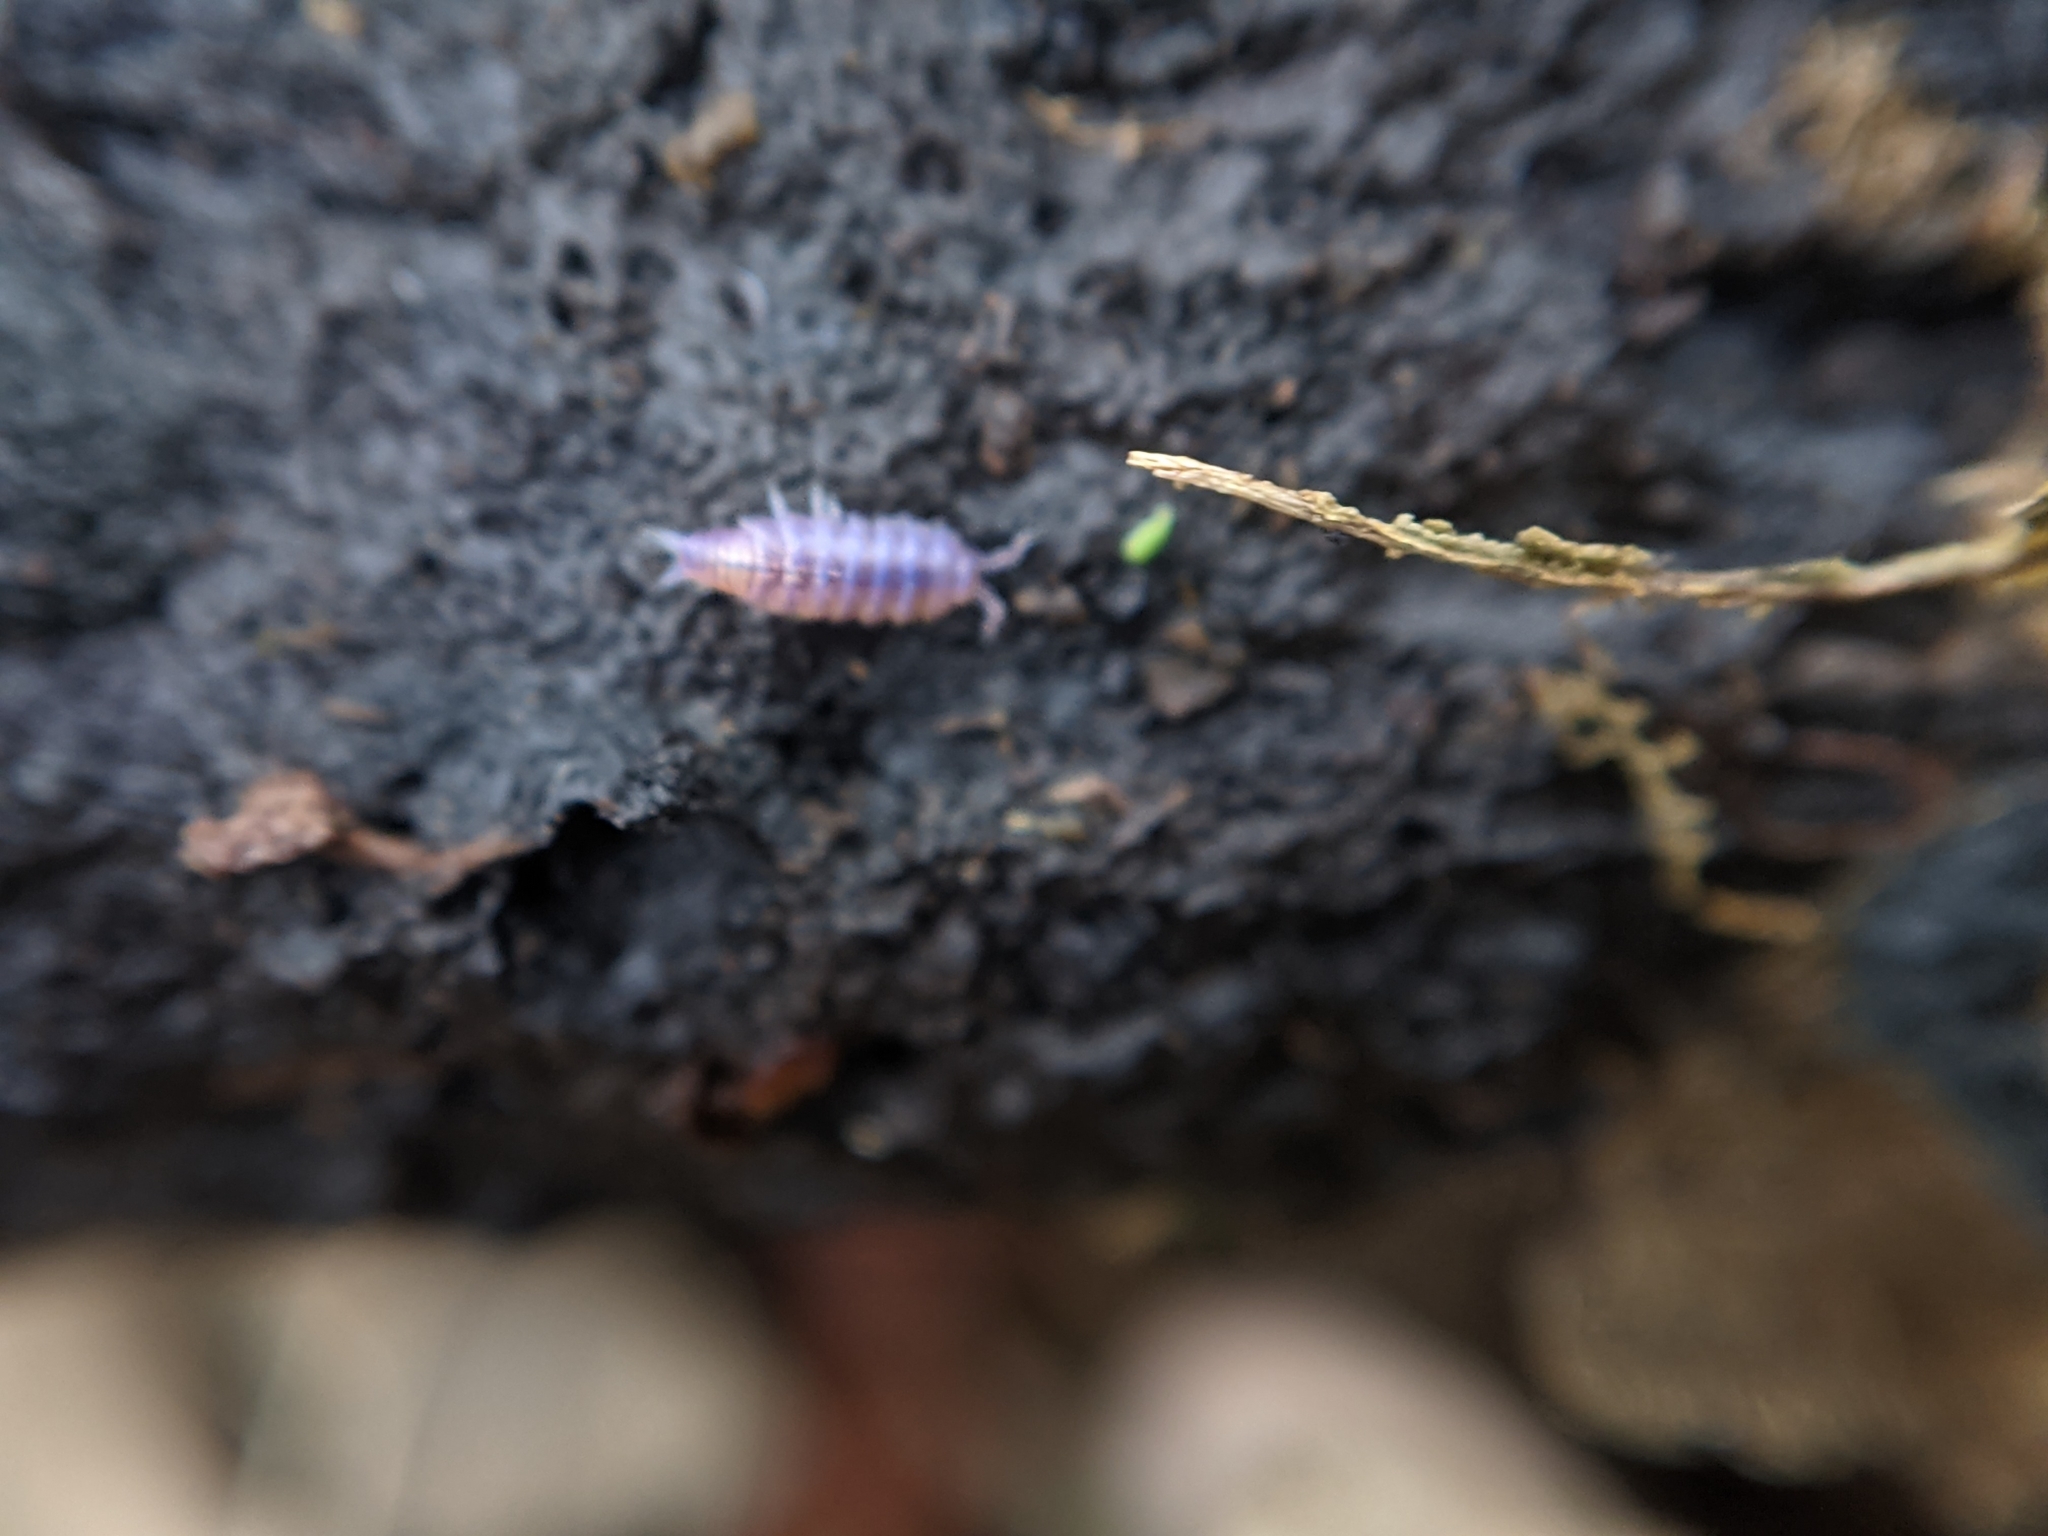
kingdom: Animalia
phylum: Arthropoda
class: Malacostraca
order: Isopoda
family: Trichoniscidae
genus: Hyloniscus
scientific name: Hyloniscus riparius
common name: Isopod
